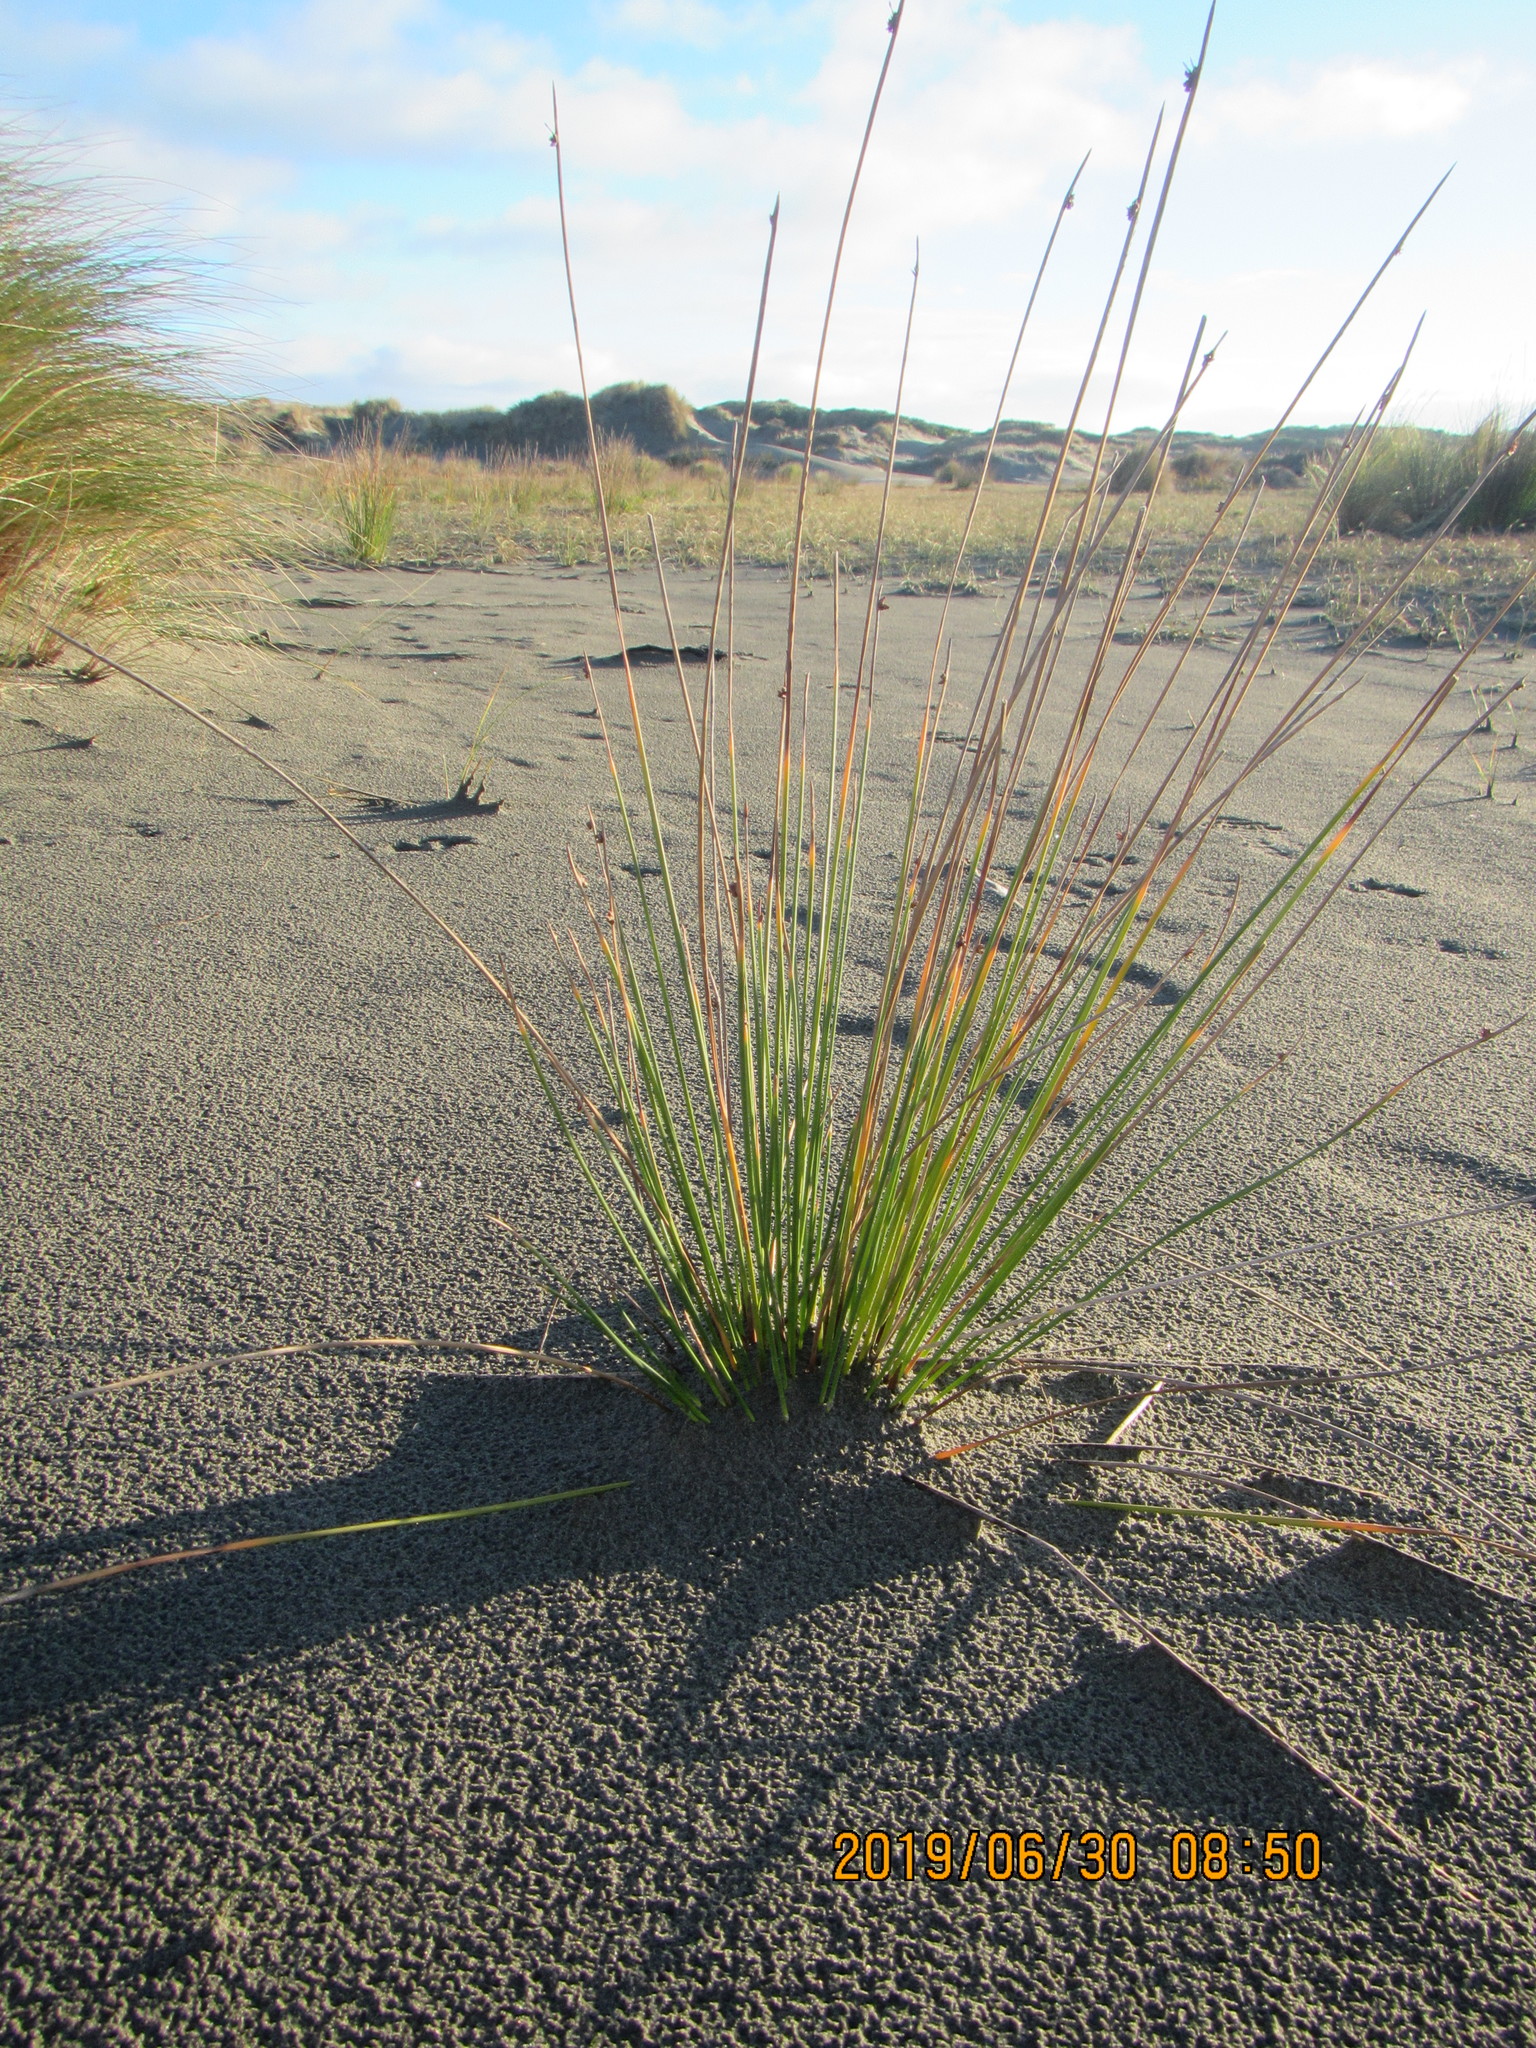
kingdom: Plantae
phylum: Tracheophyta
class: Liliopsida
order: Poales
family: Cyperaceae
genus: Ficinia
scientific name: Ficinia nodosa
